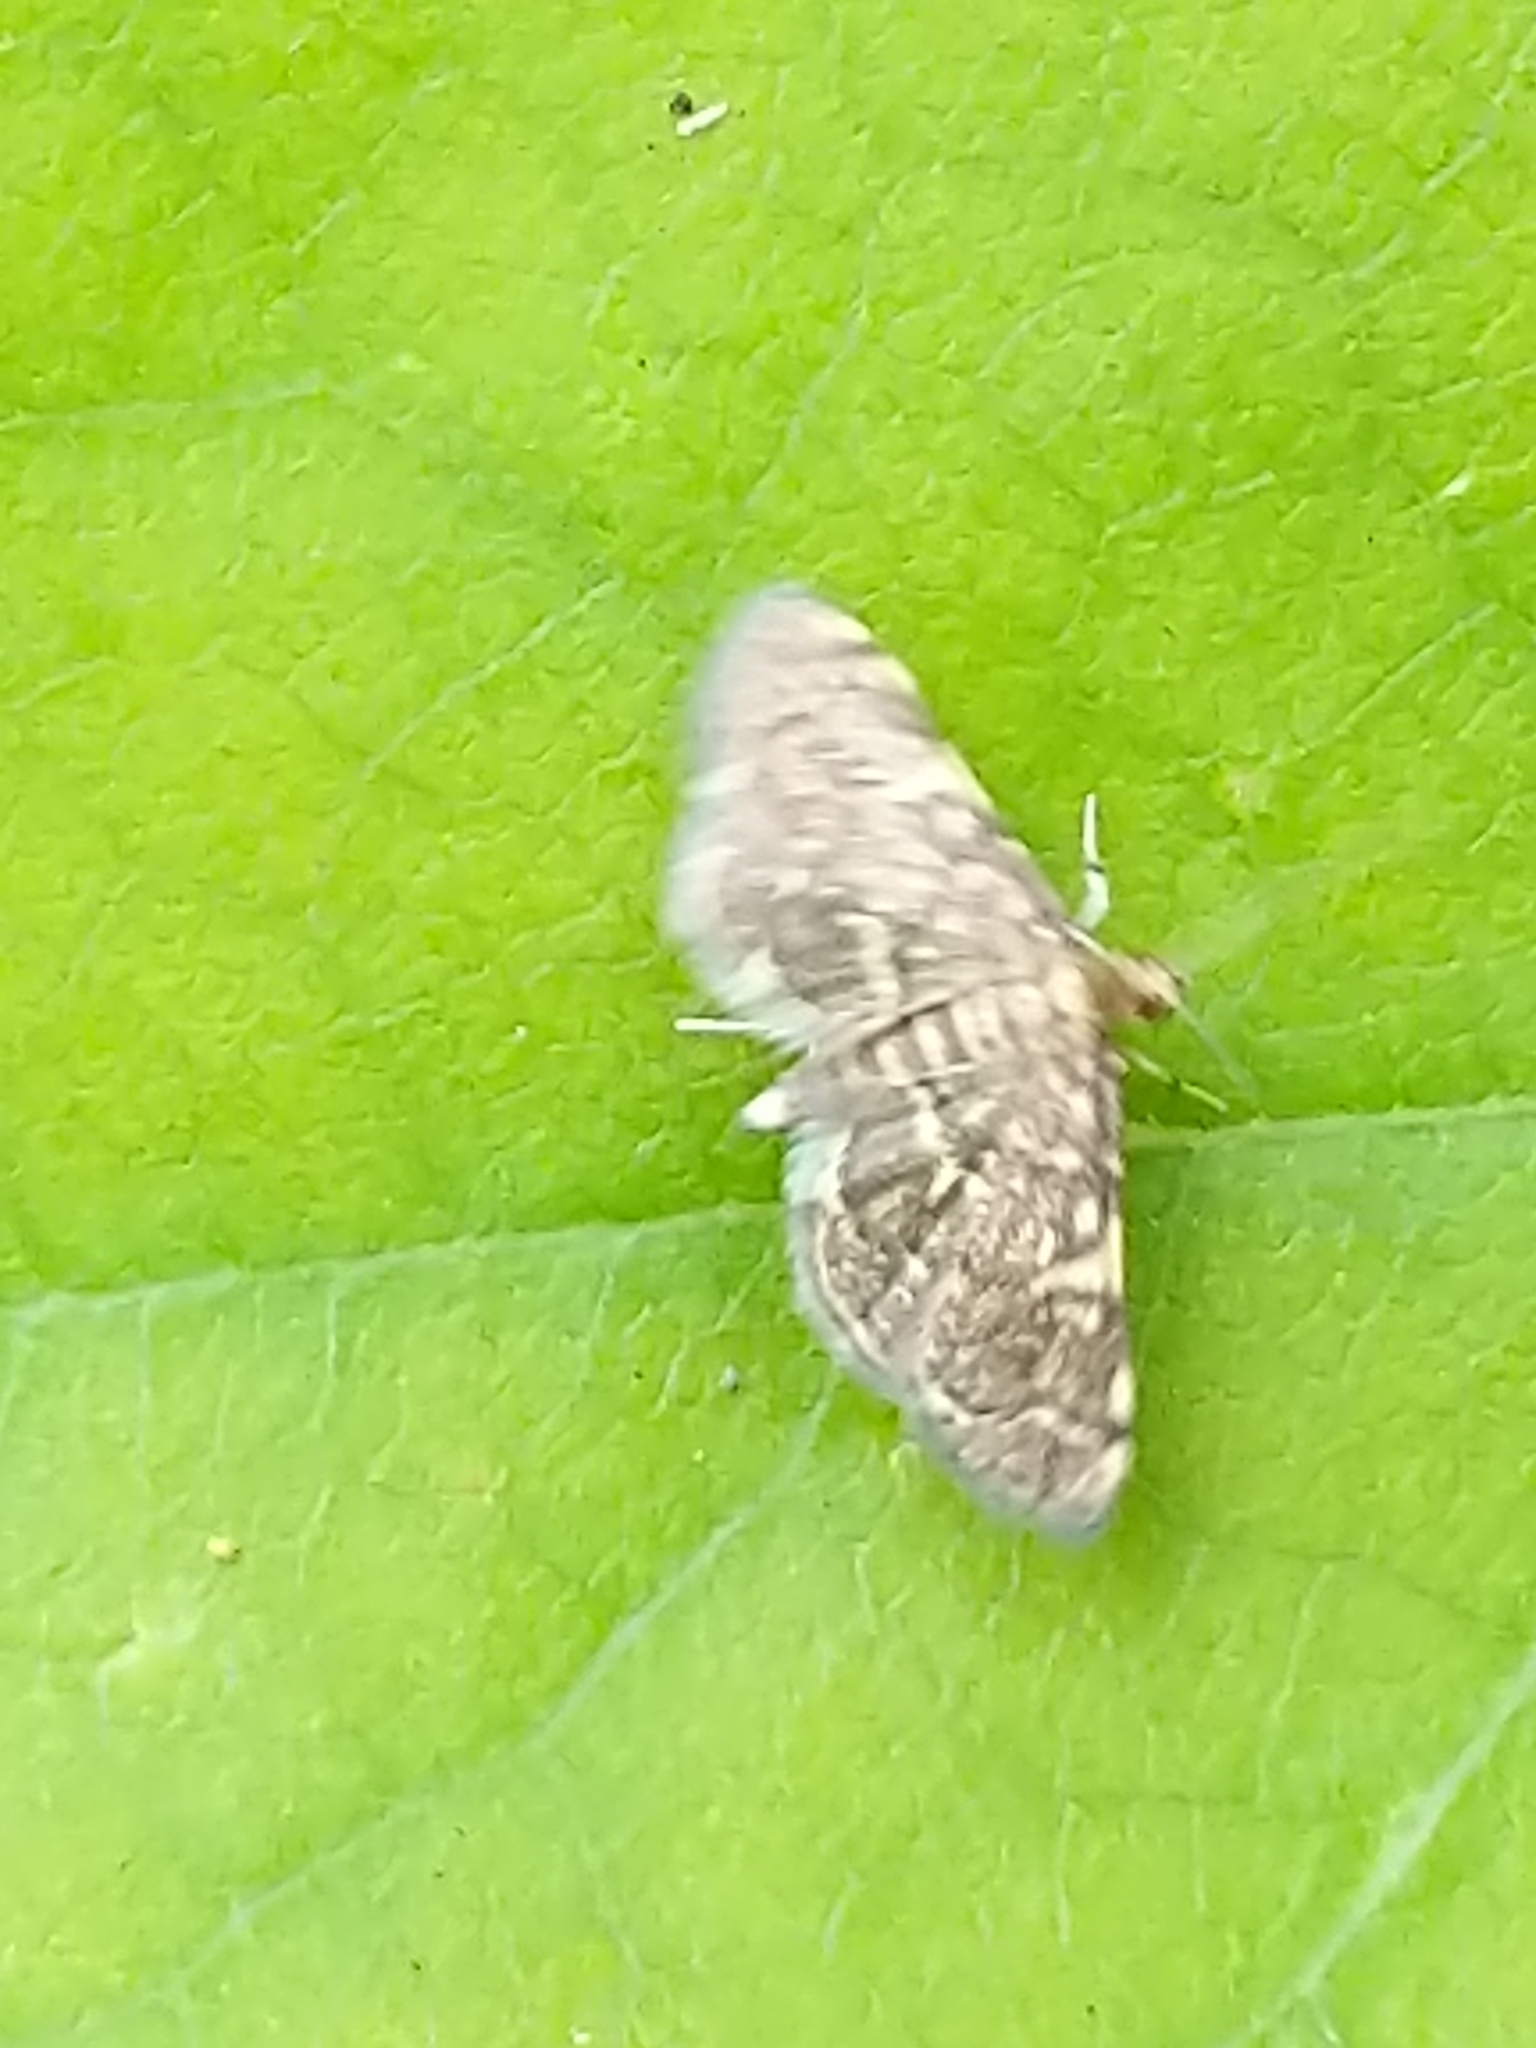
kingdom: Animalia
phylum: Arthropoda
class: Insecta
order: Lepidoptera
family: Crambidae
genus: Anageshna
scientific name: Anageshna primordialis
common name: Yellow-spotted webworm moth
